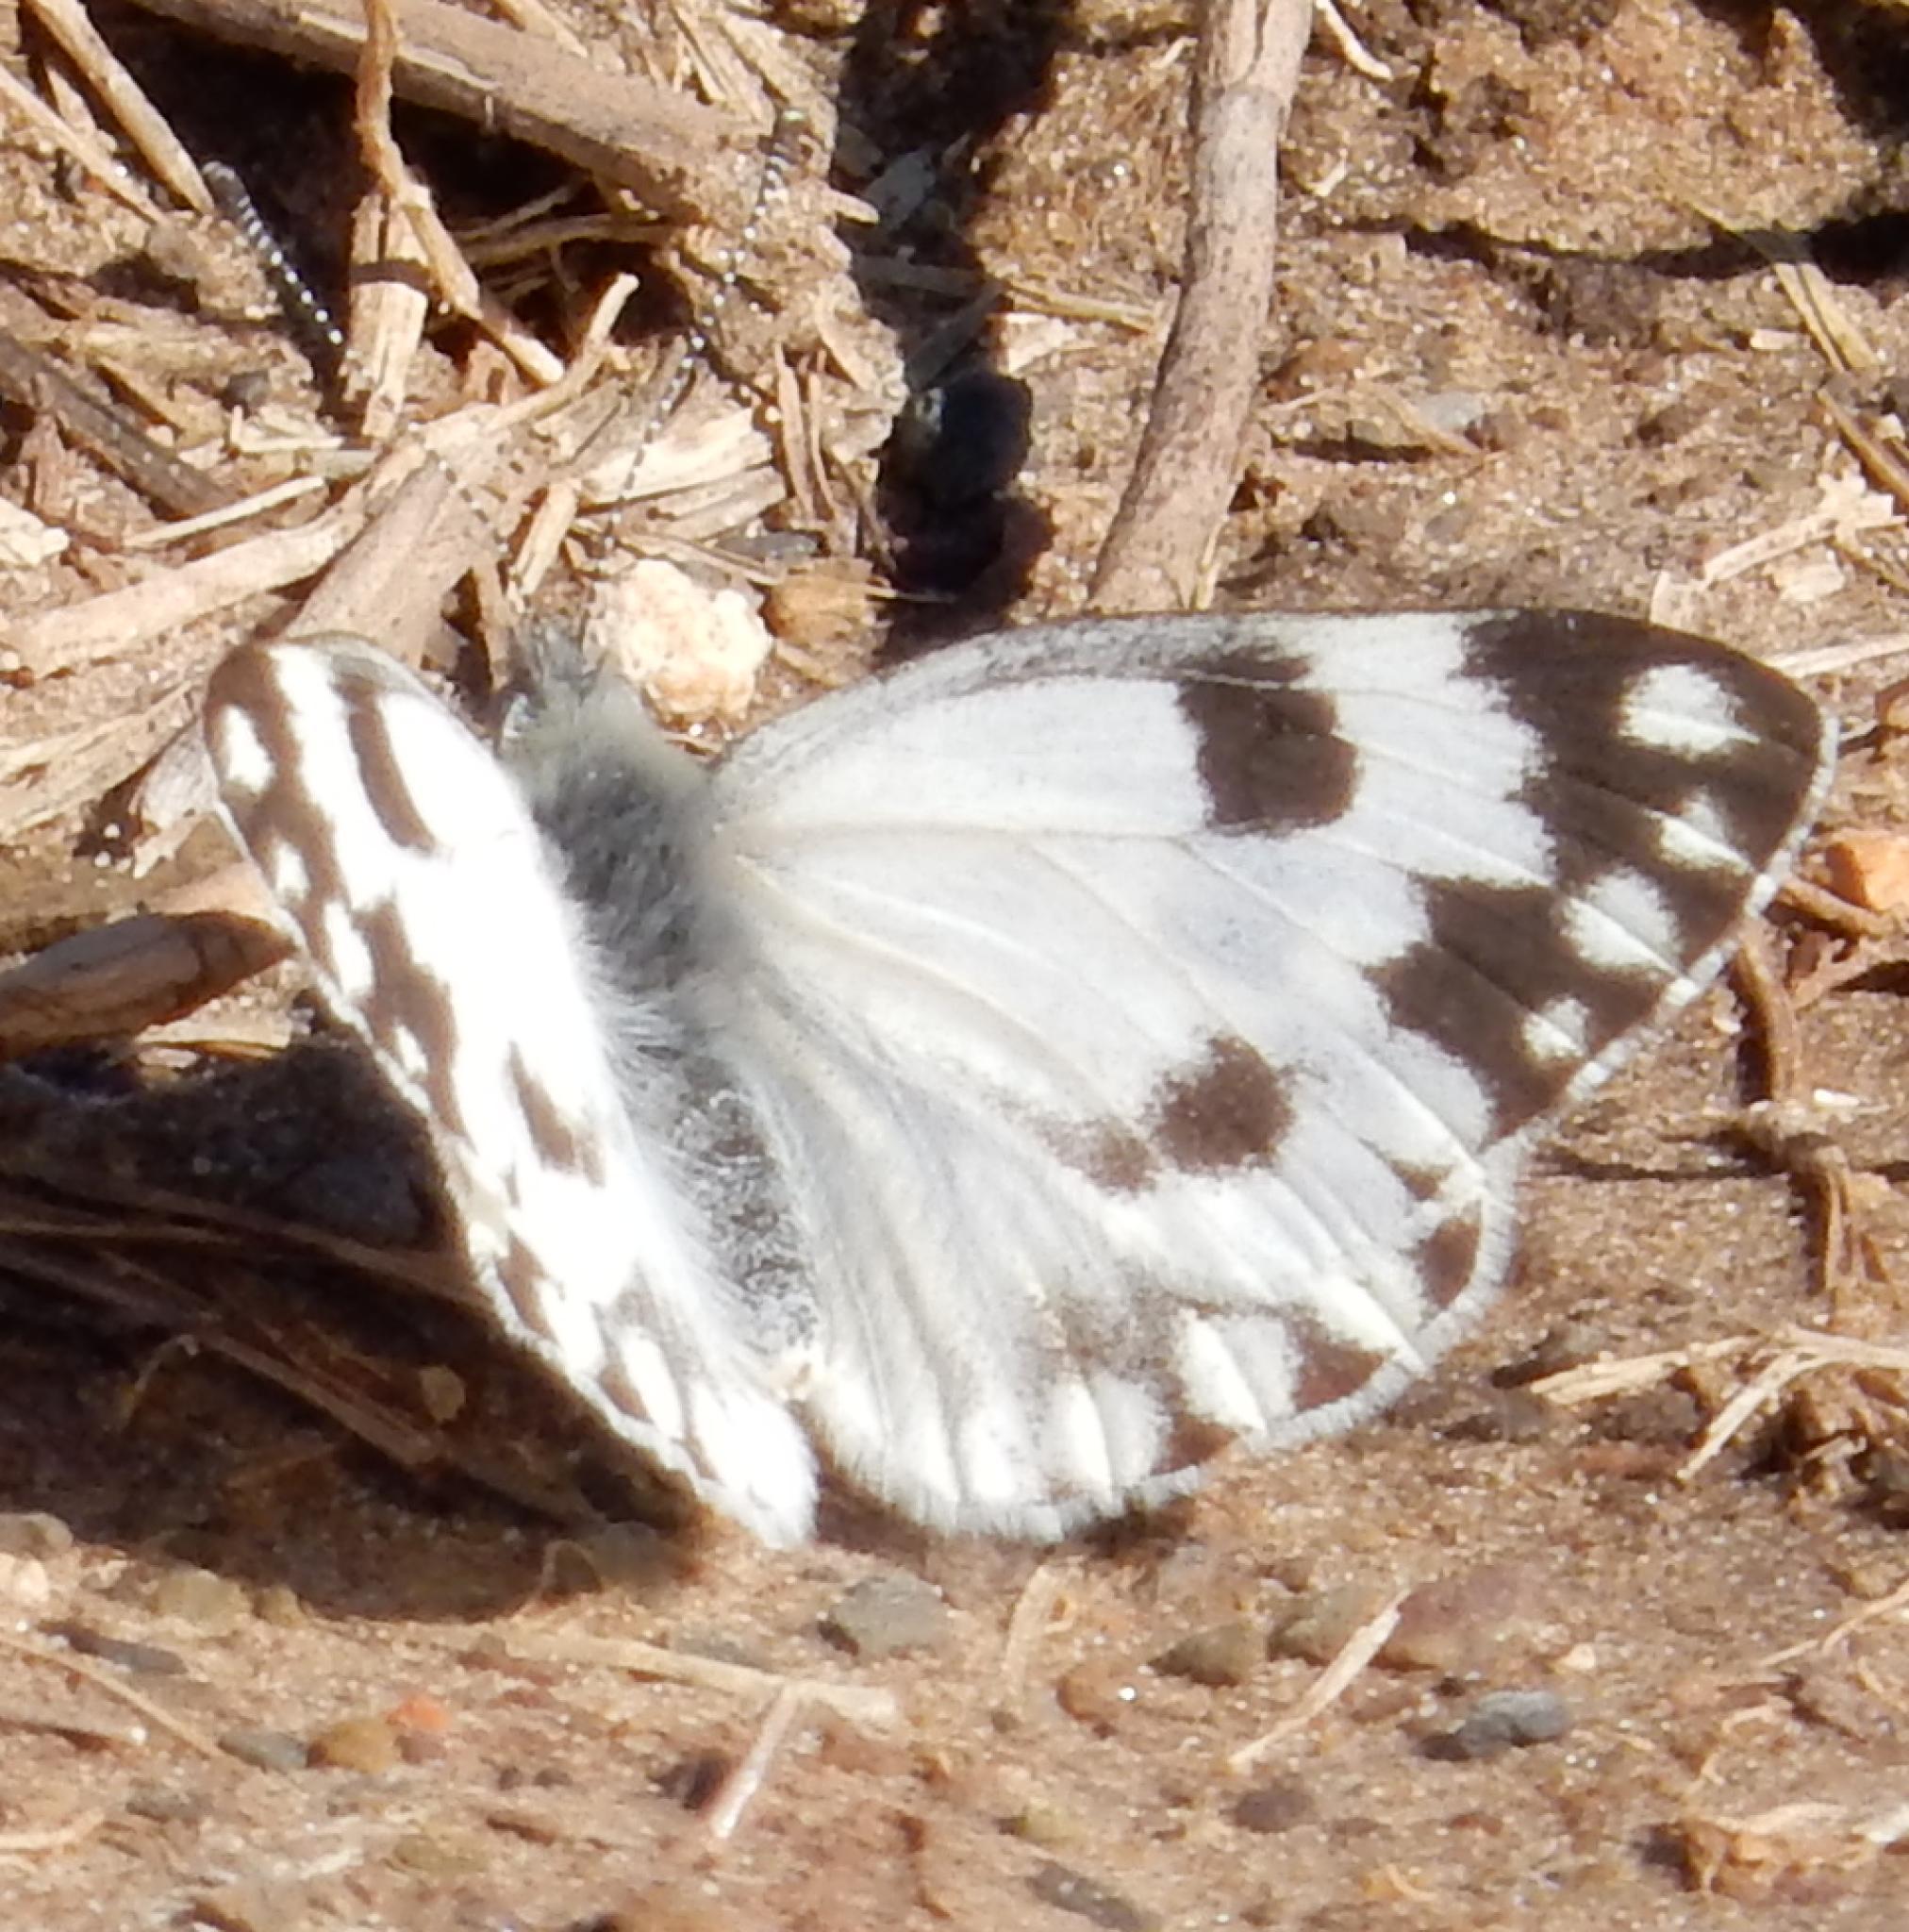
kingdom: Animalia
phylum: Arthropoda
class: Insecta
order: Lepidoptera
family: Pieridae
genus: Pontia
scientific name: Pontia helice
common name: Meadow white
